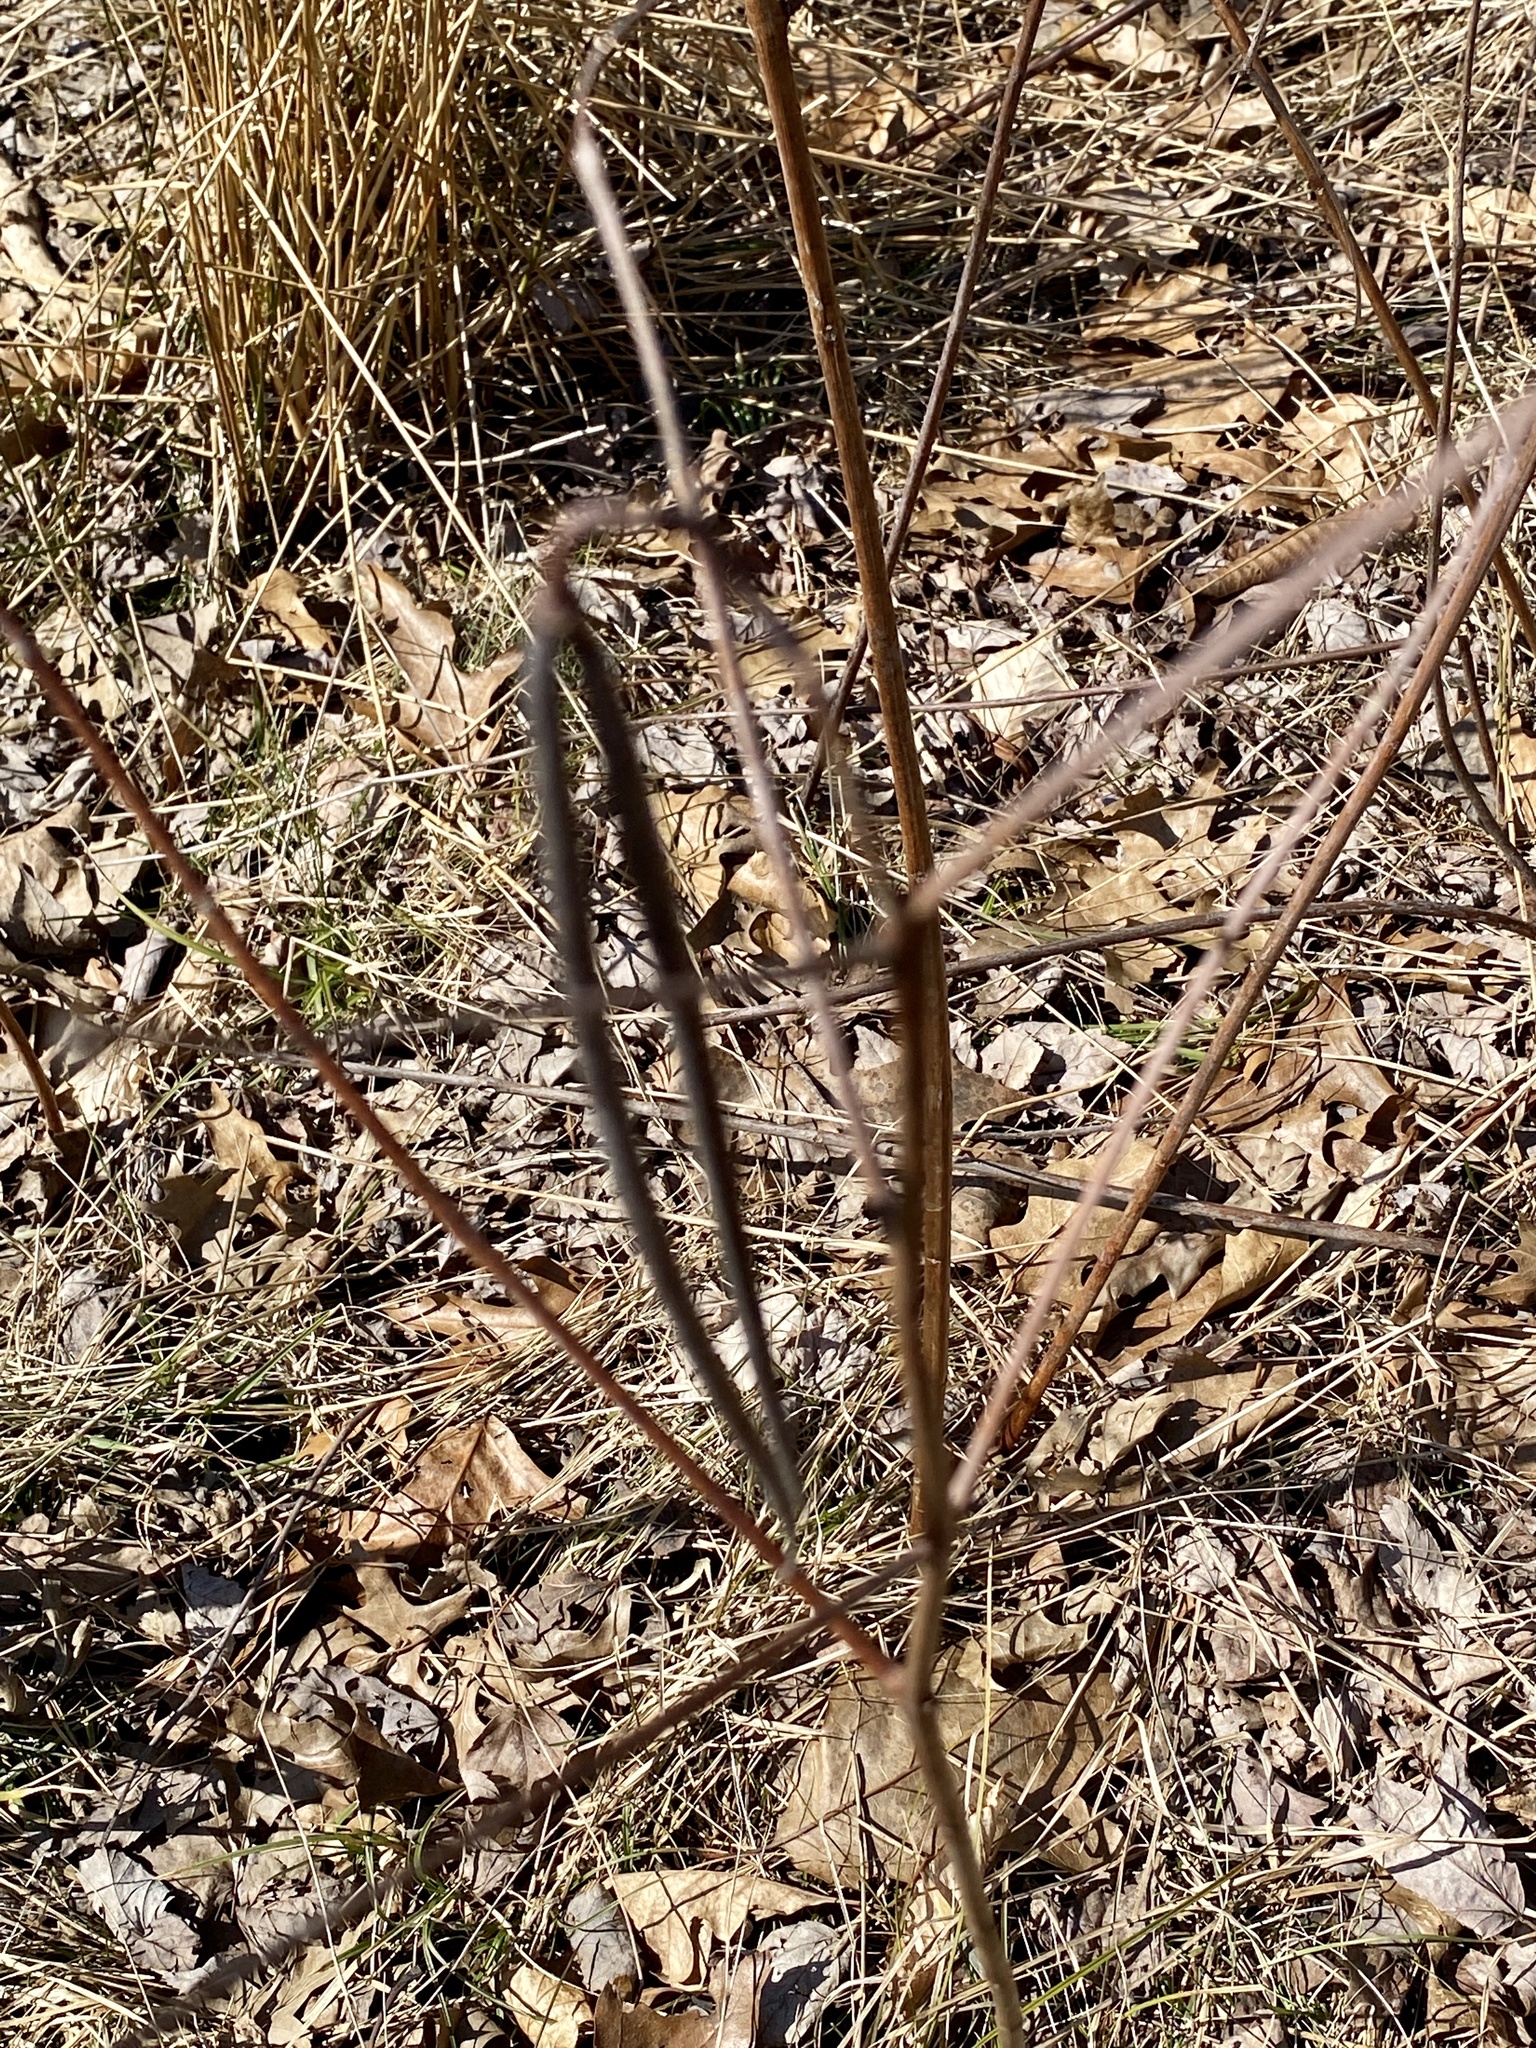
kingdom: Plantae
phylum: Tracheophyta
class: Magnoliopsida
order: Gentianales
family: Apocynaceae
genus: Apocynum
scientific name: Apocynum cannabinum
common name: Hemp dogbane
